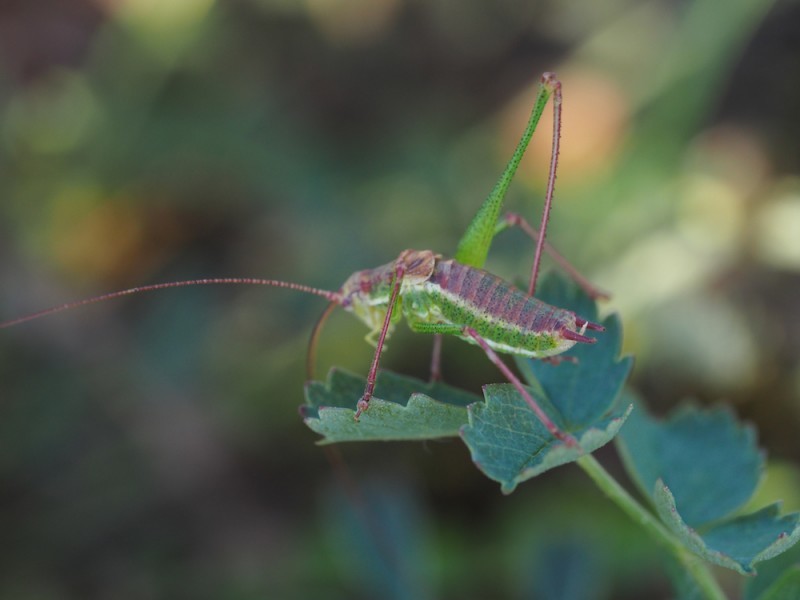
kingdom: Animalia
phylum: Arthropoda
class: Insecta
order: Orthoptera
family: Tettigoniidae
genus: Leptophyes
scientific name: Leptophyes albovittata
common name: Striped bush-cricket
